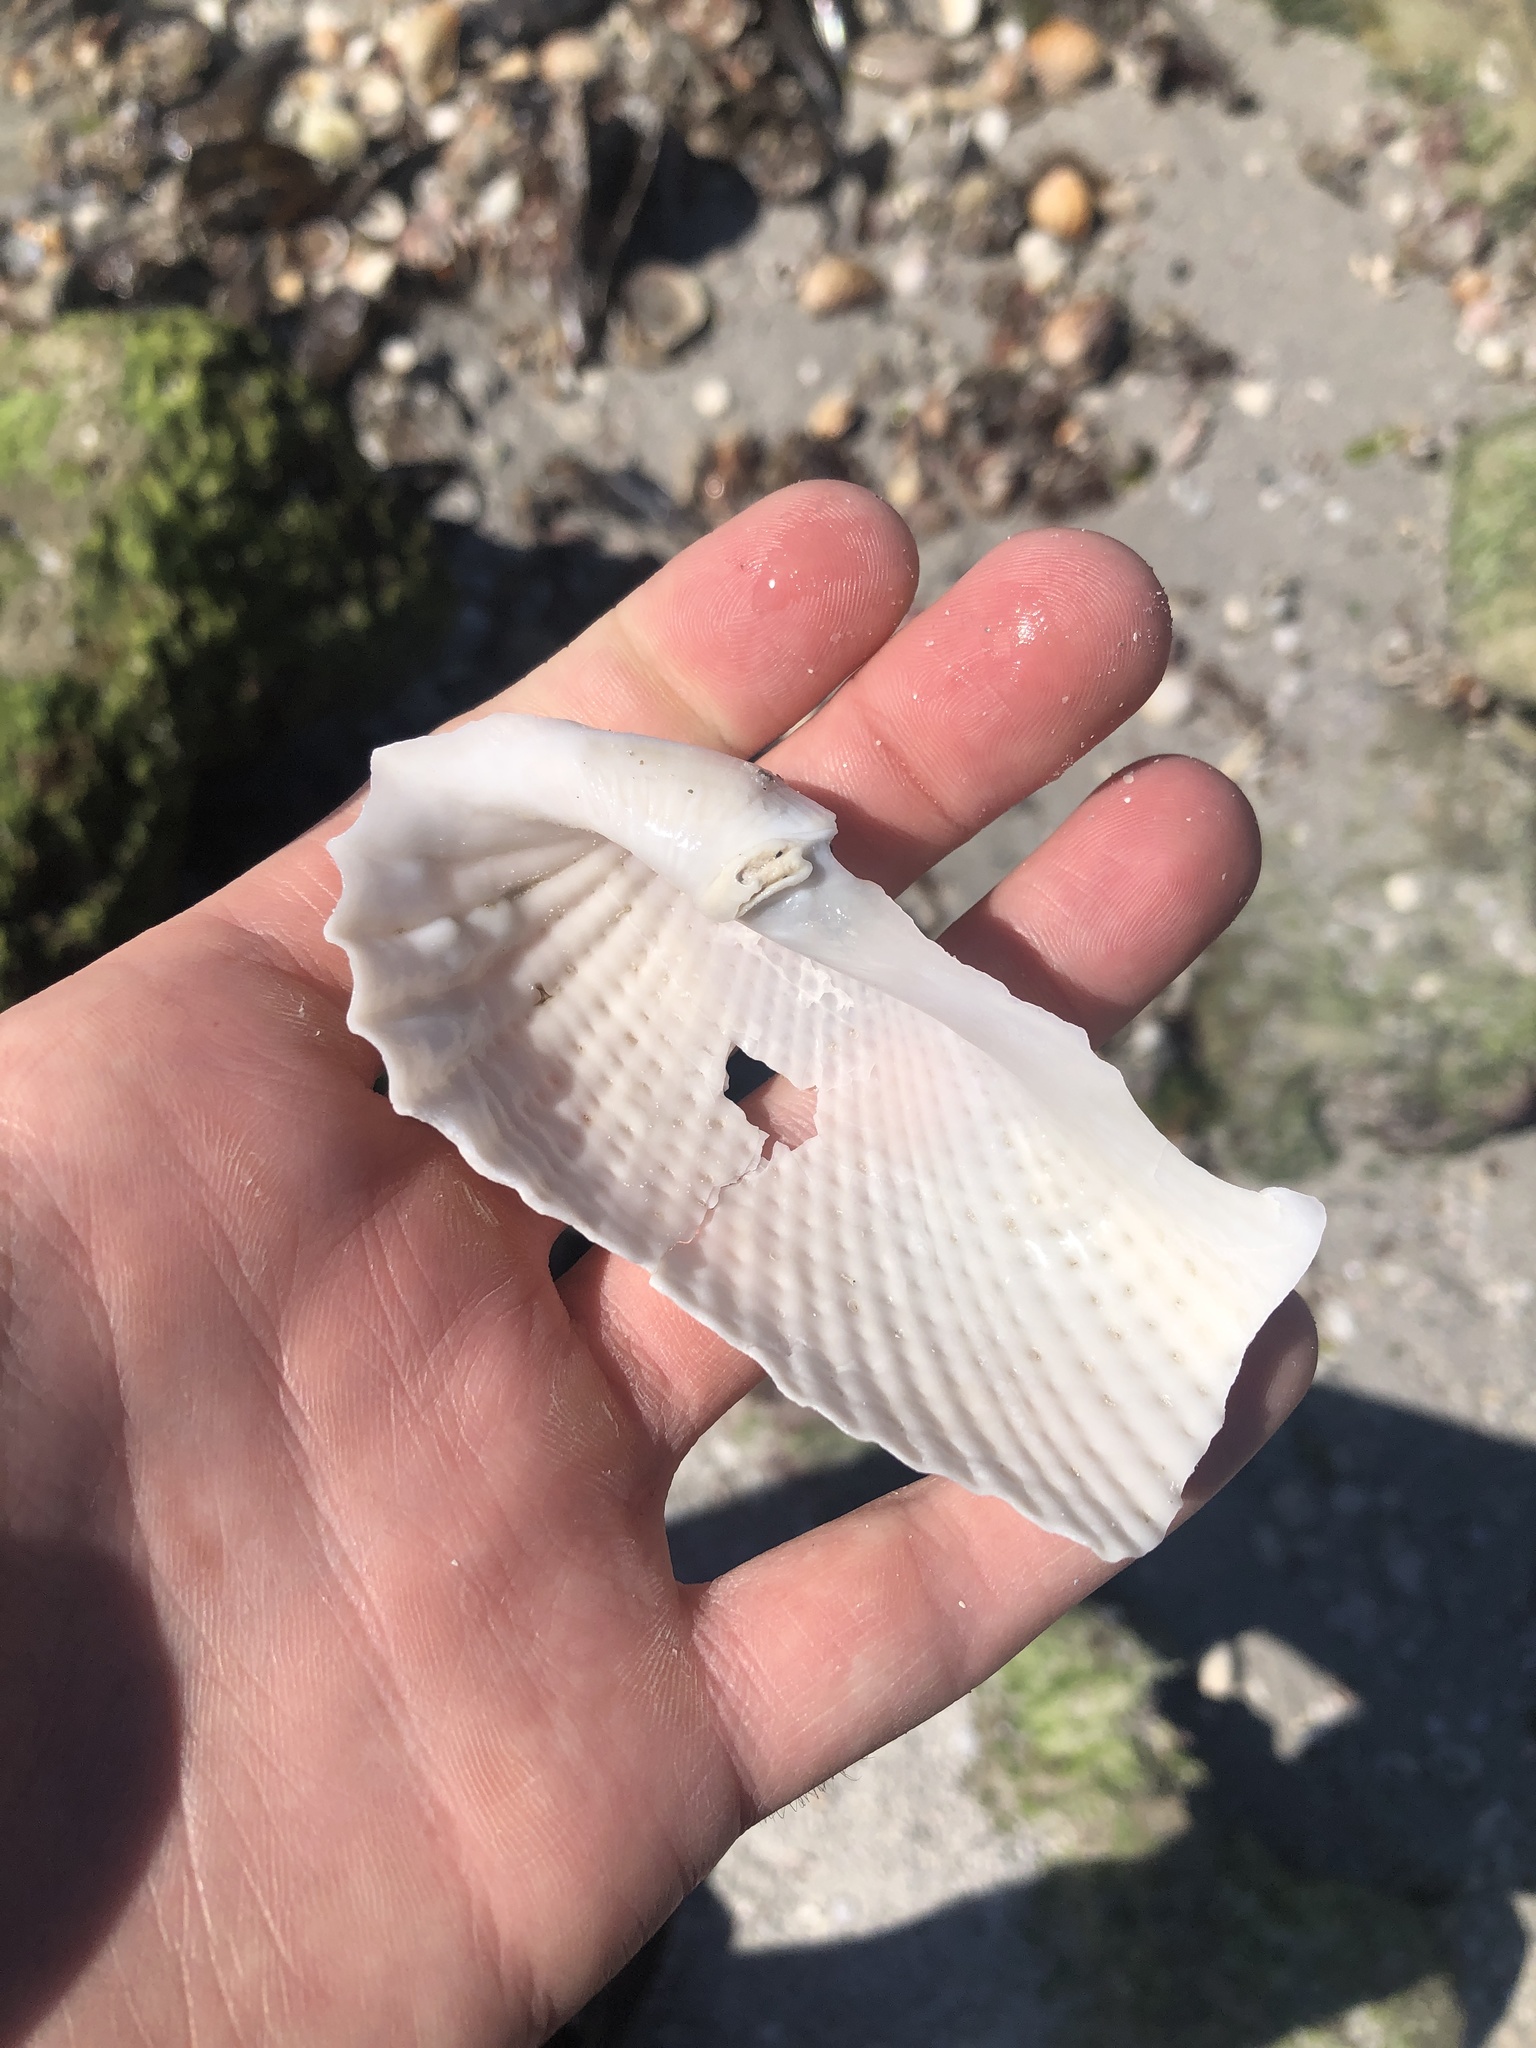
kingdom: Animalia
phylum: Mollusca
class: Bivalvia
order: Myida
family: Pholadidae
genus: Cyrtopleura
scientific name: Cyrtopleura costata
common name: Angel wing
